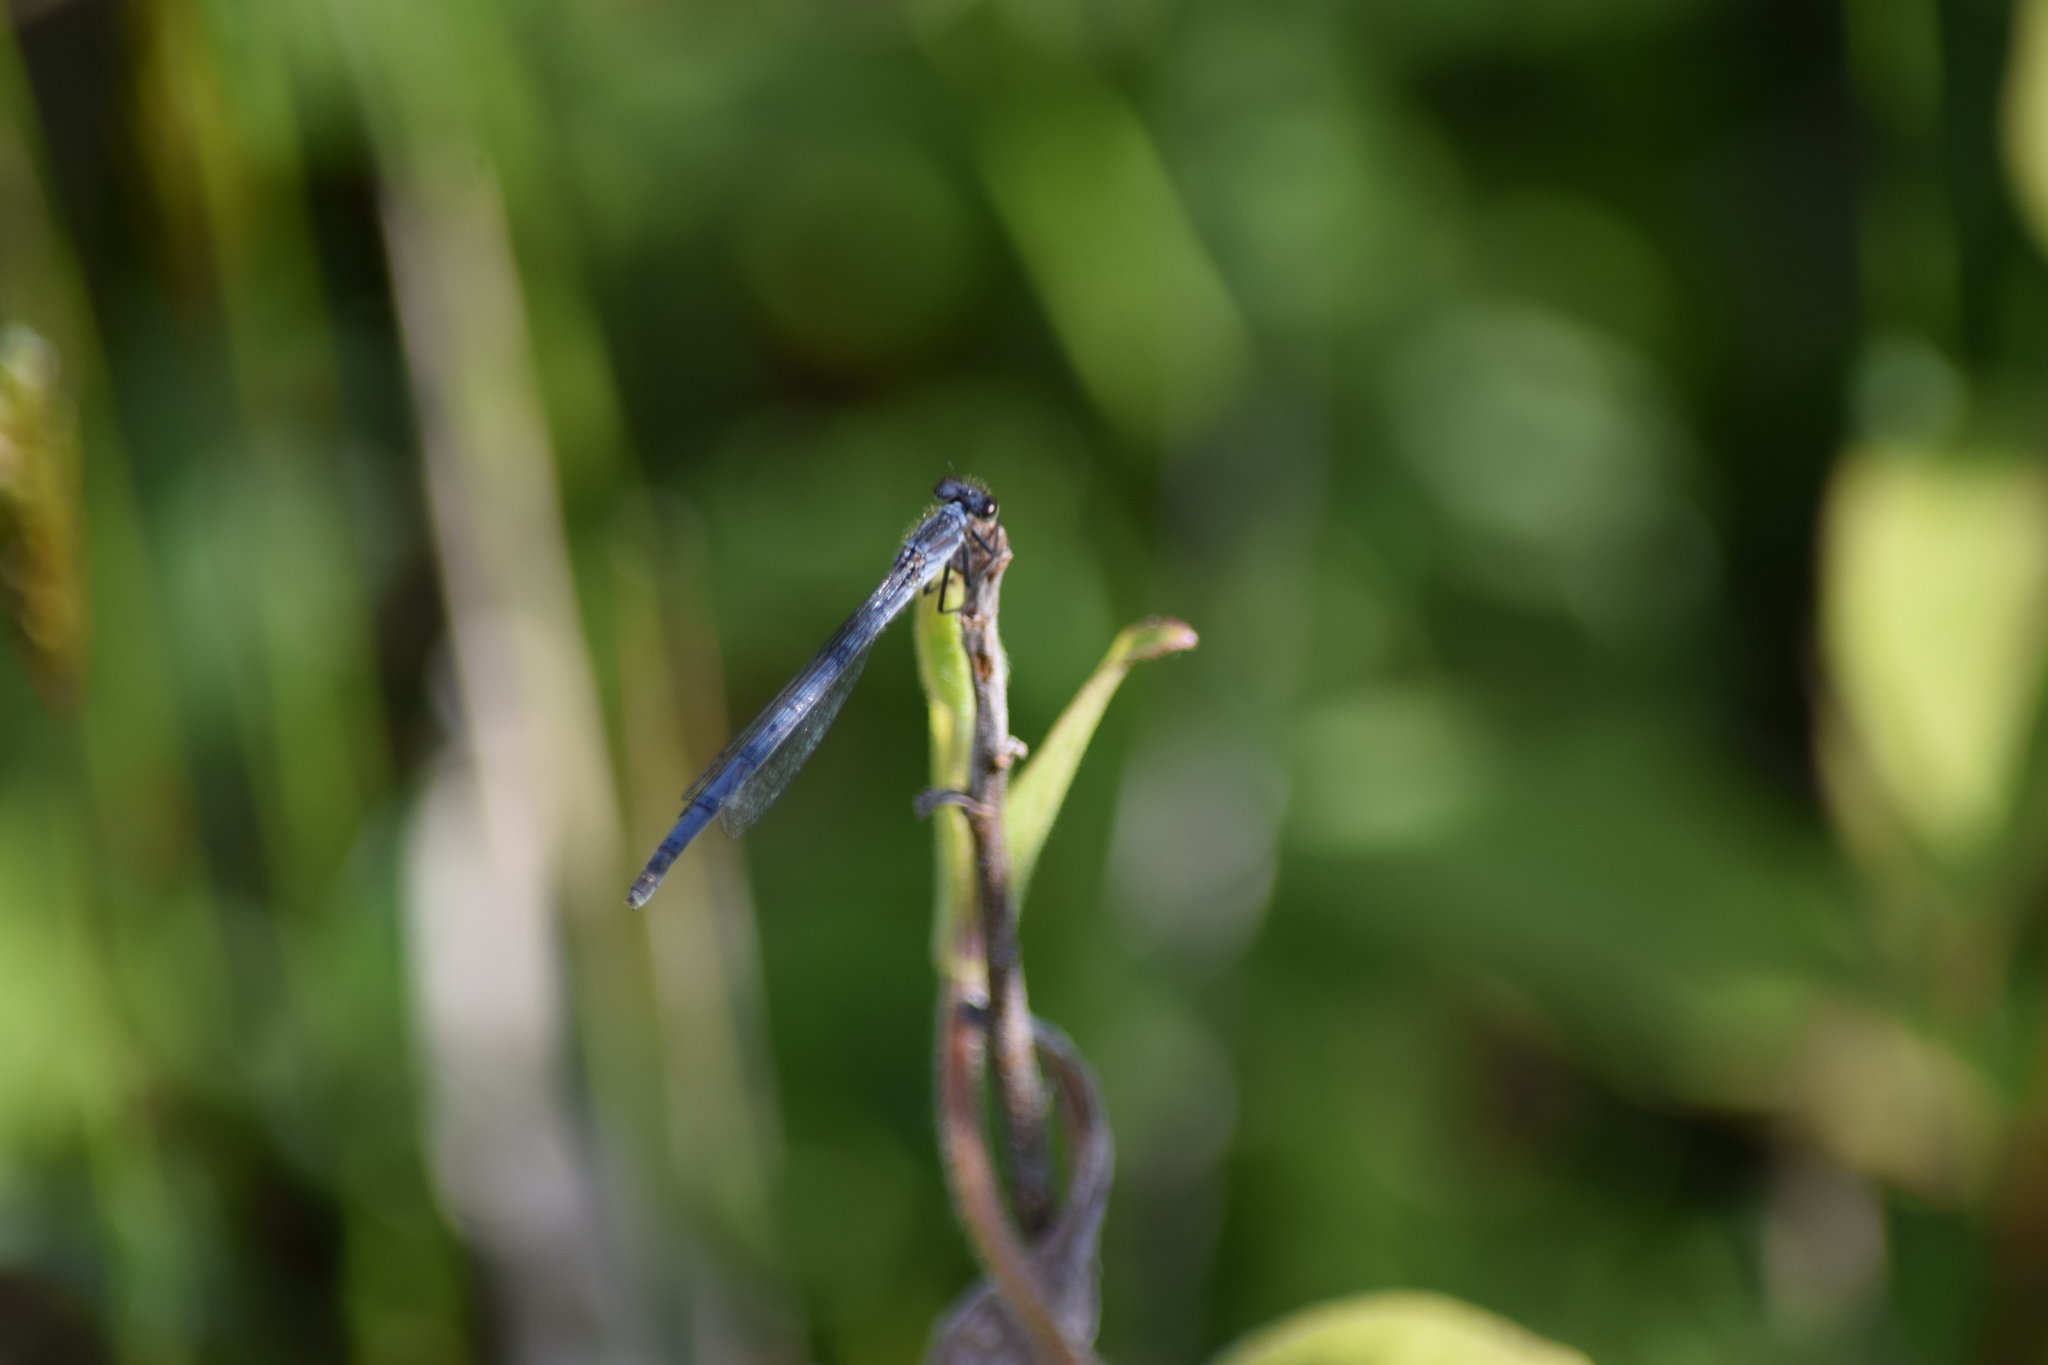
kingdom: Animalia
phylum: Arthropoda
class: Insecta
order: Odonata
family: Coenagrionidae
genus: Ischnura
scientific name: Ischnura posita
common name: Fragile forktail
